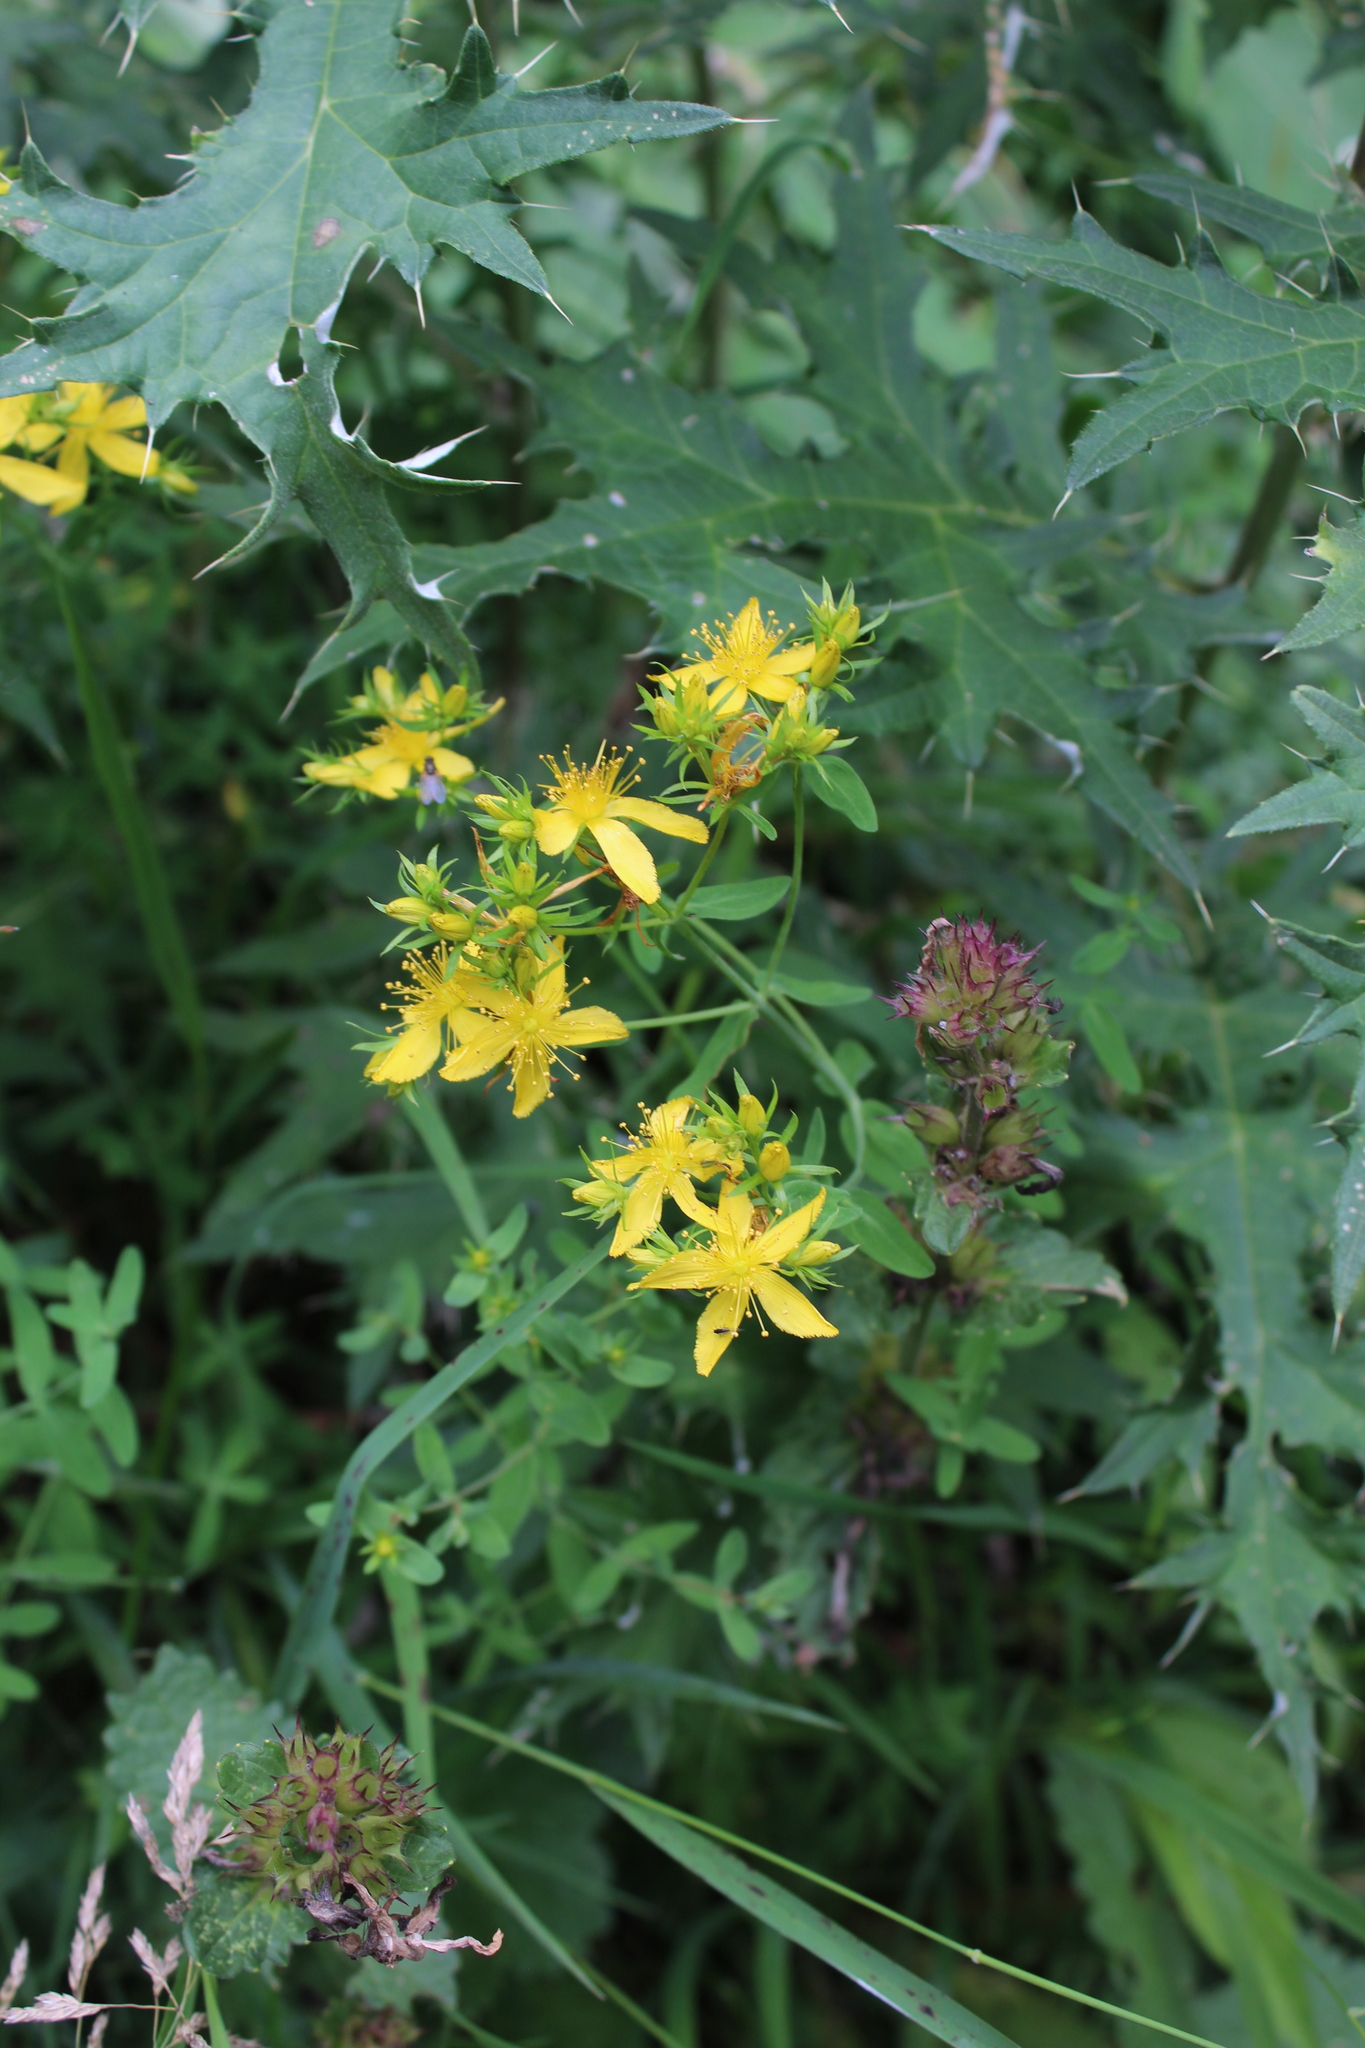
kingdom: Plantae
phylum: Tracheophyta
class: Magnoliopsida
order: Malpighiales
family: Hypericaceae
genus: Hypericum
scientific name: Hypericum perforatum
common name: Common st. johnswort
